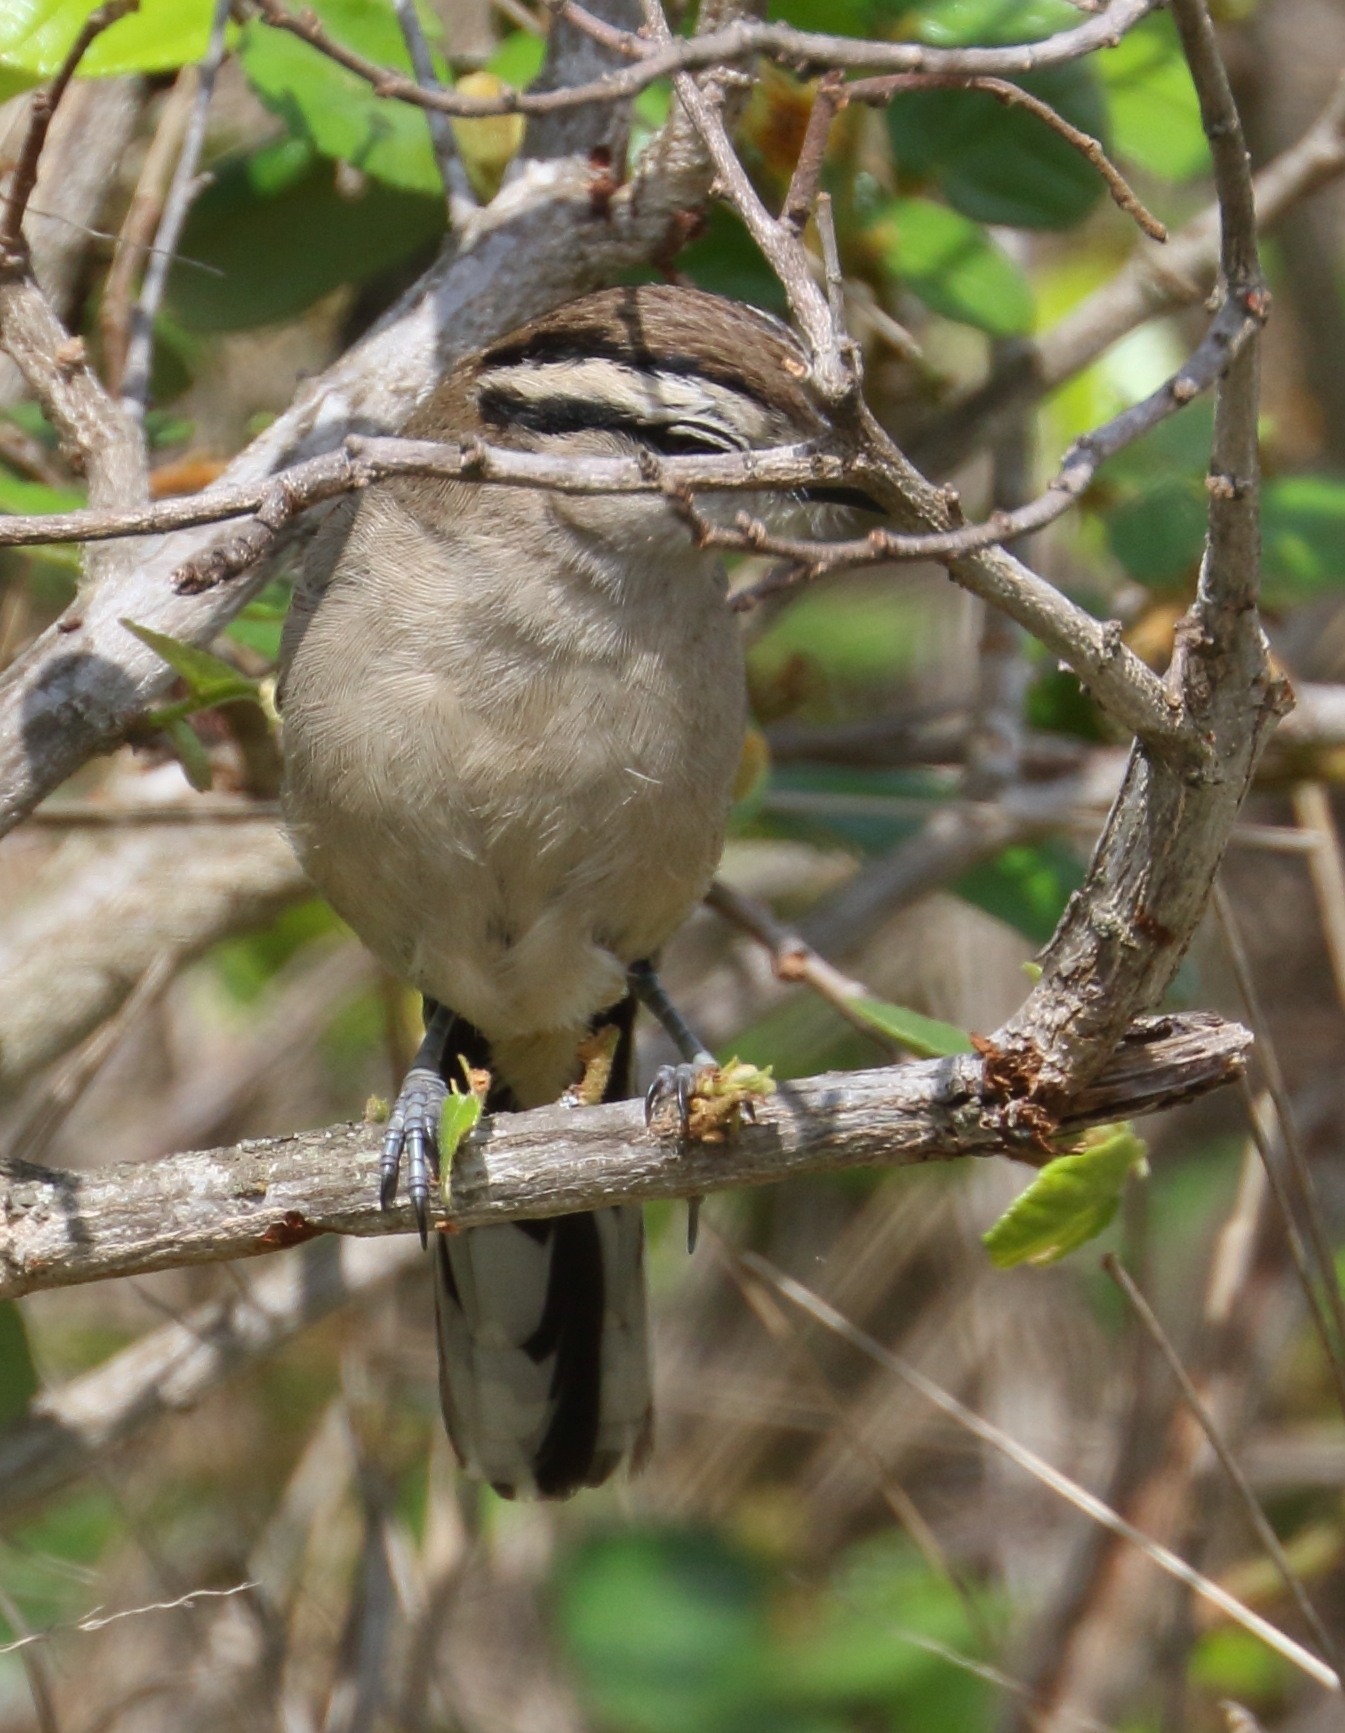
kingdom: Animalia
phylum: Chordata
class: Aves
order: Passeriformes
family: Malaconotidae
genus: Tchagra
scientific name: Tchagra australis
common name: Brown-crowned tchagra
